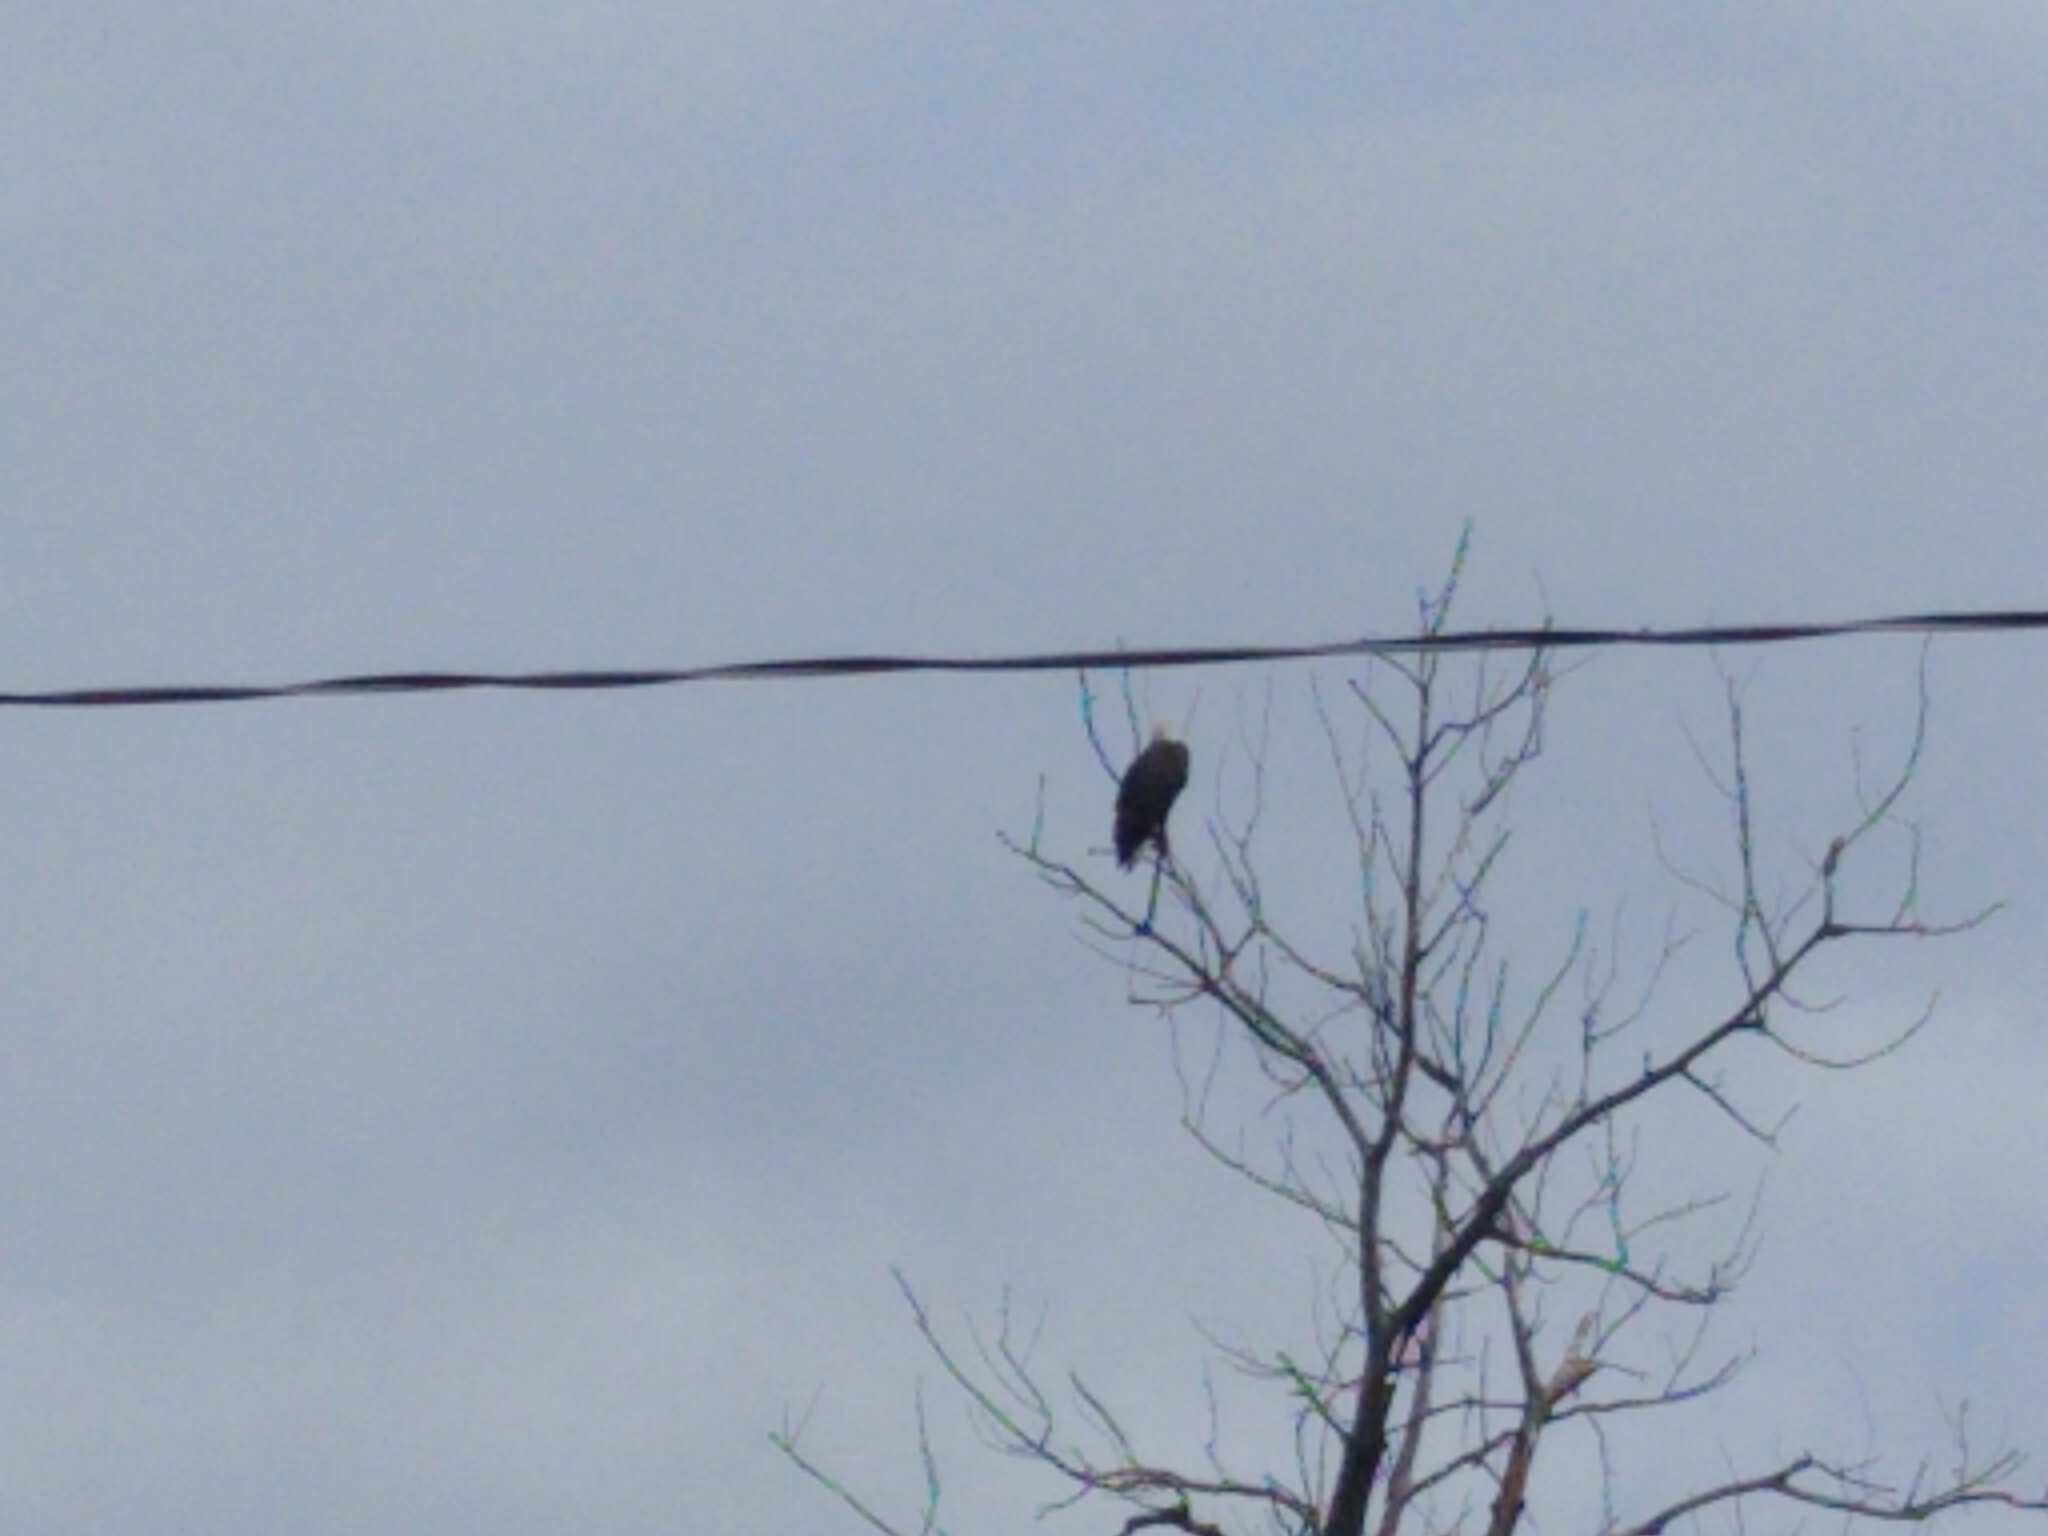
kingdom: Animalia
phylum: Chordata
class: Aves
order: Accipitriformes
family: Accipitridae
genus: Haliaeetus
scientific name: Haliaeetus leucocephalus
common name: Bald eagle
